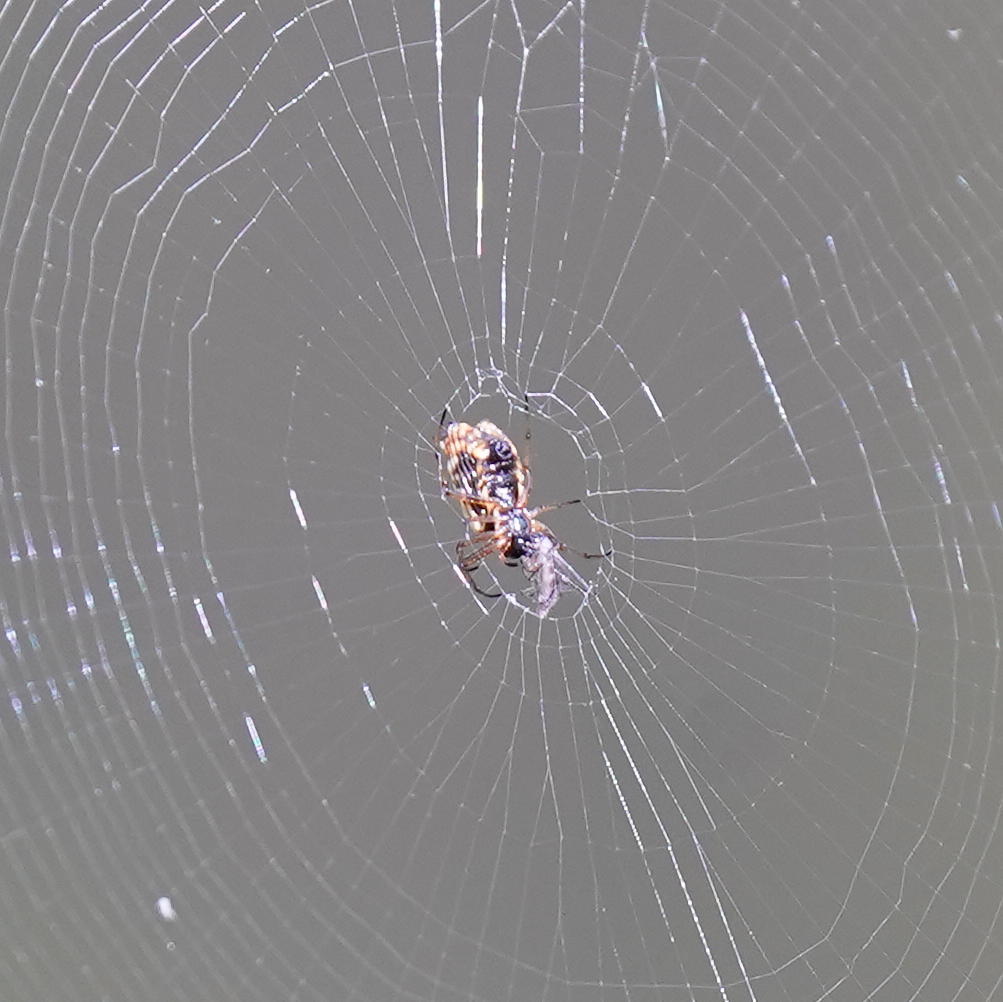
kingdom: Animalia
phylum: Arthropoda
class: Arachnida
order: Araneae
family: Araneidae
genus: Micrathena
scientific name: Micrathena mitrata
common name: Orb weavers
